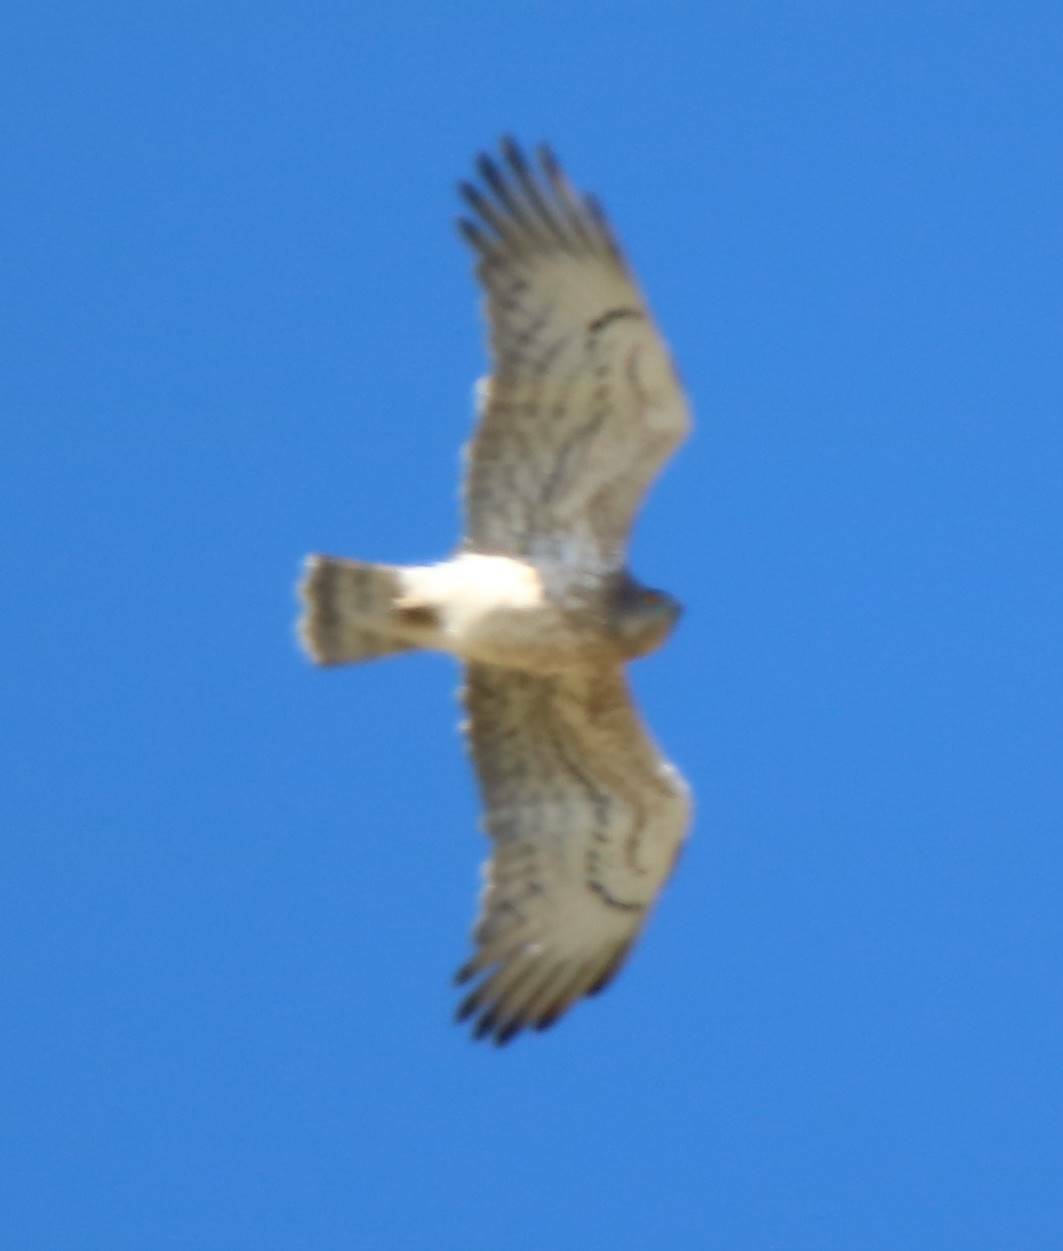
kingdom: Animalia
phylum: Chordata
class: Aves
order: Accipitriformes
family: Accipitridae
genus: Circaetus
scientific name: Circaetus gallicus
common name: Short-toed snake eagle
